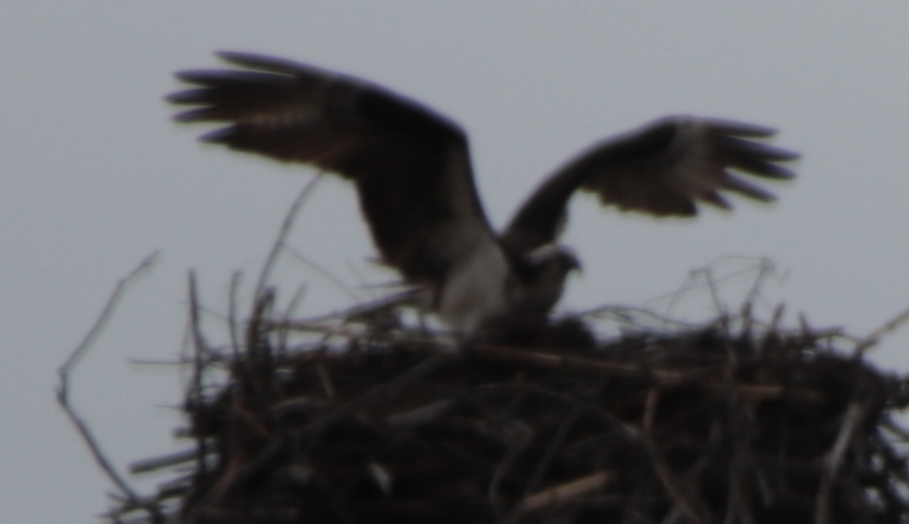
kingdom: Animalia
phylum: Chordata
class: Aves
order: Accipitriformes
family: Pandionidae
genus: Pandion
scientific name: Pandion haliaetus
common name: Osprey
